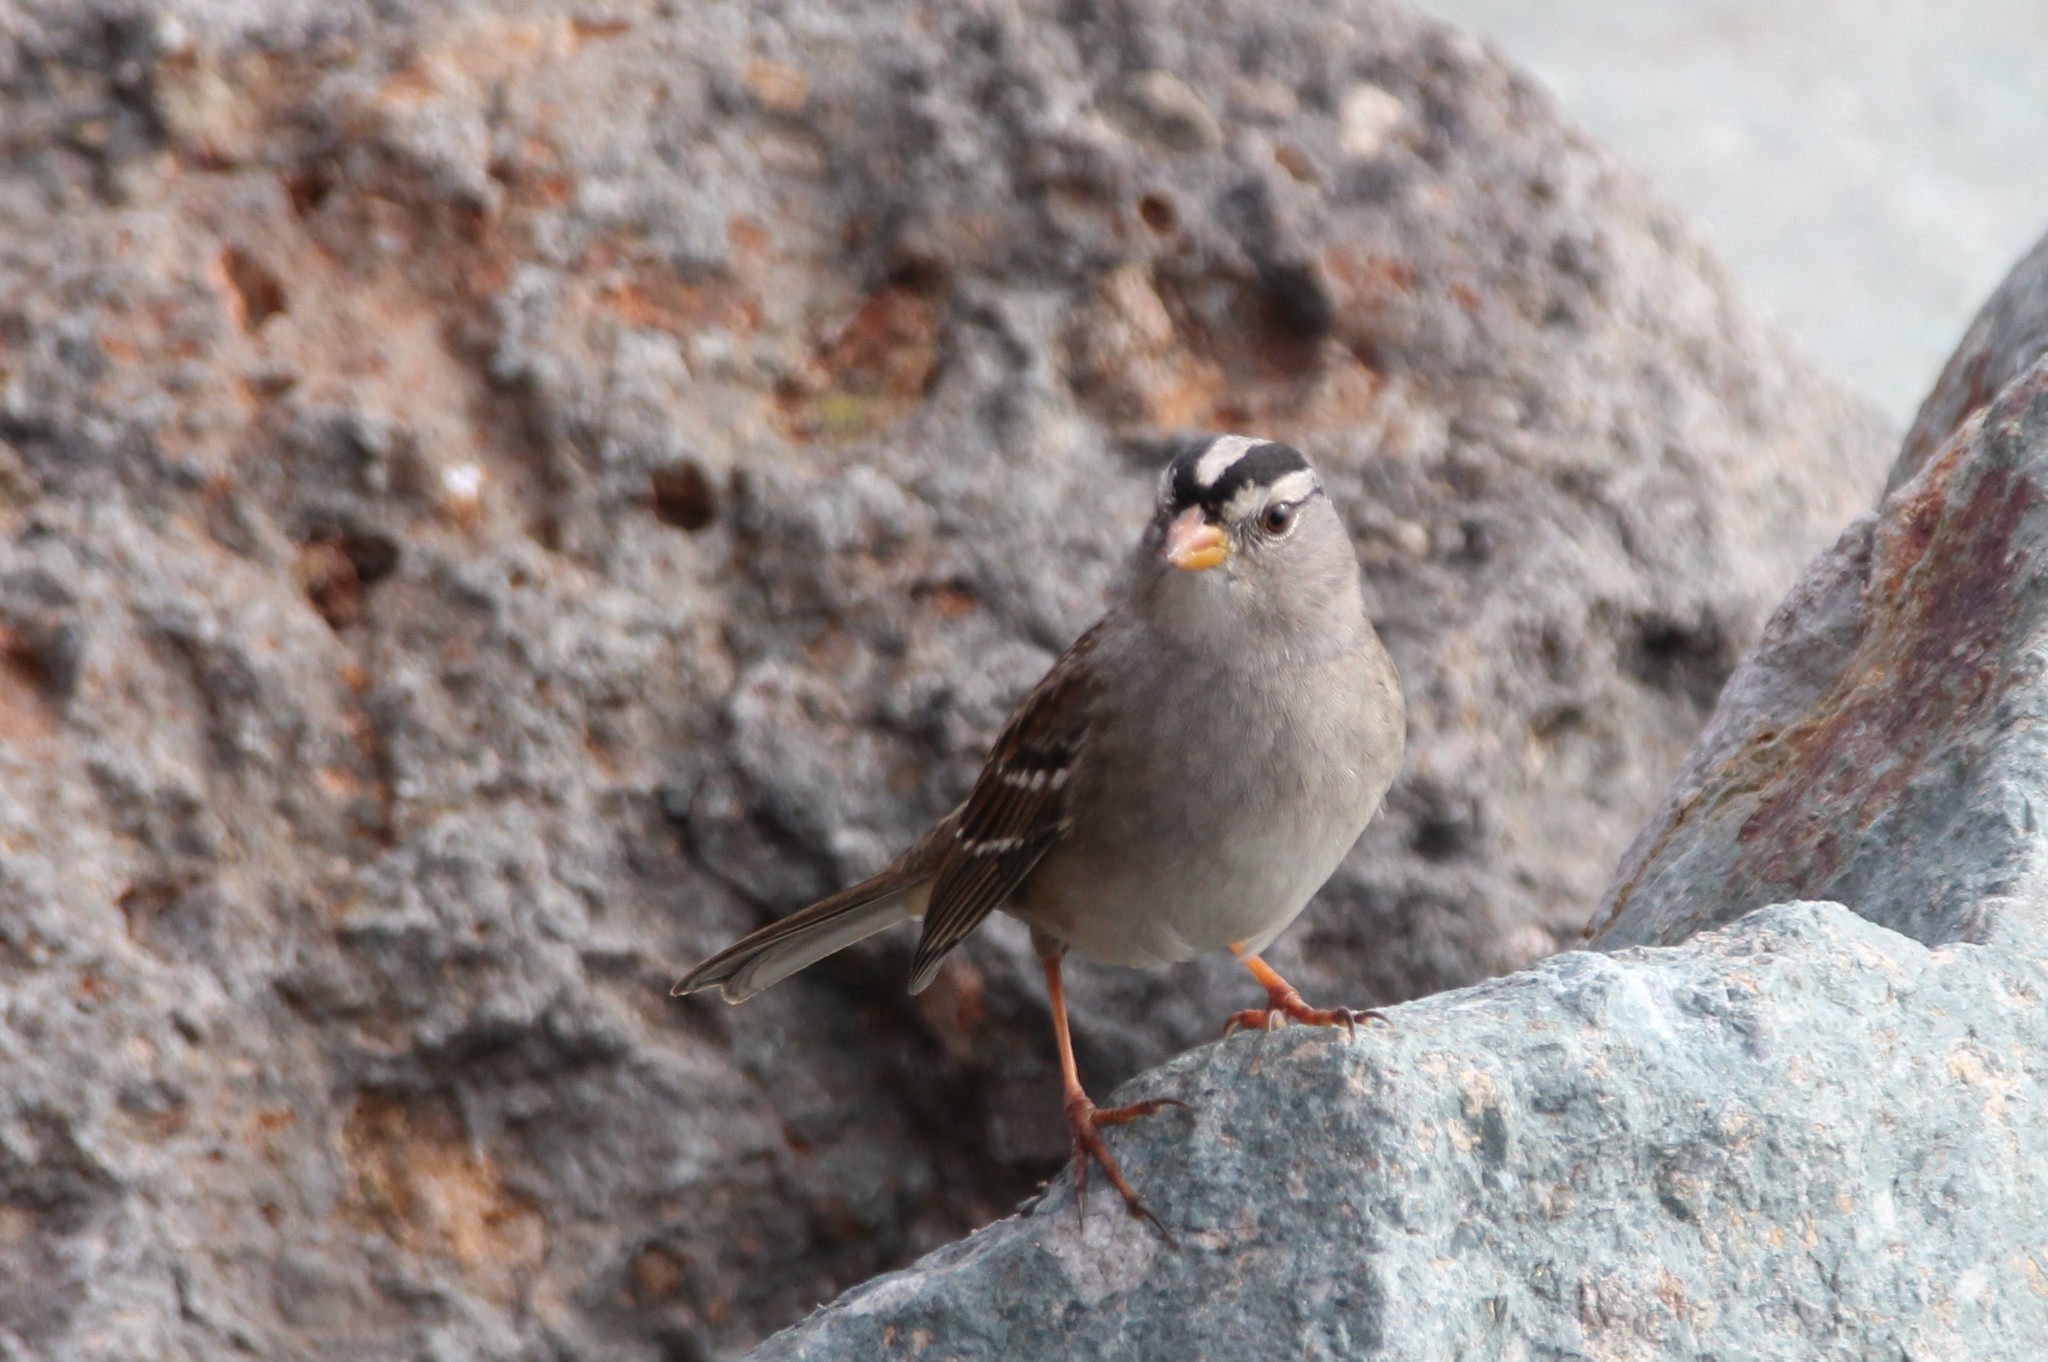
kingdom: Animalia
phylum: Chordata
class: Aves
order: Passeriformes
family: Passerellidae
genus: Zonotrichia
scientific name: Zonotrichia leucophrys
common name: White-crowned sparrow
